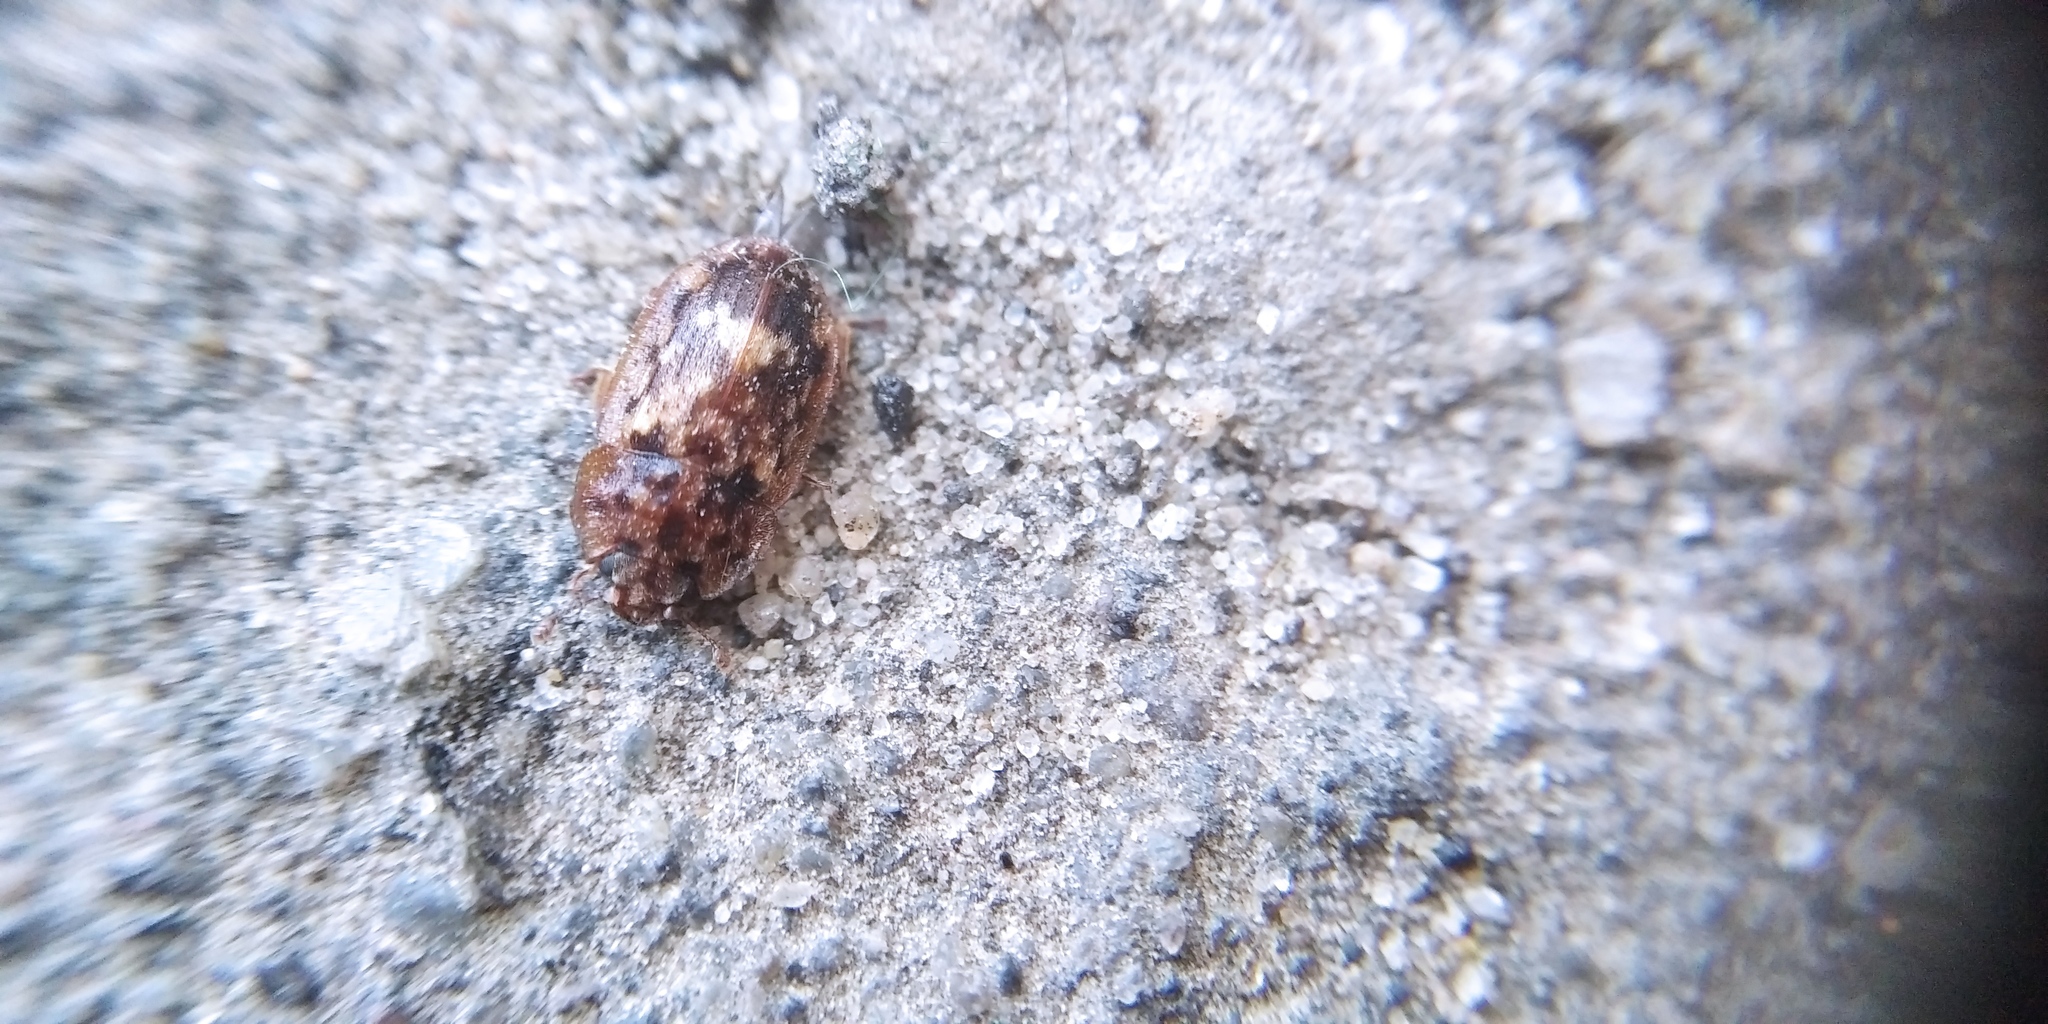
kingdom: Animalia
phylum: Arthropoda
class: Insecta
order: Coleoptera
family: Nitidulidae
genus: Soronia
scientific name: Soronia grisea
